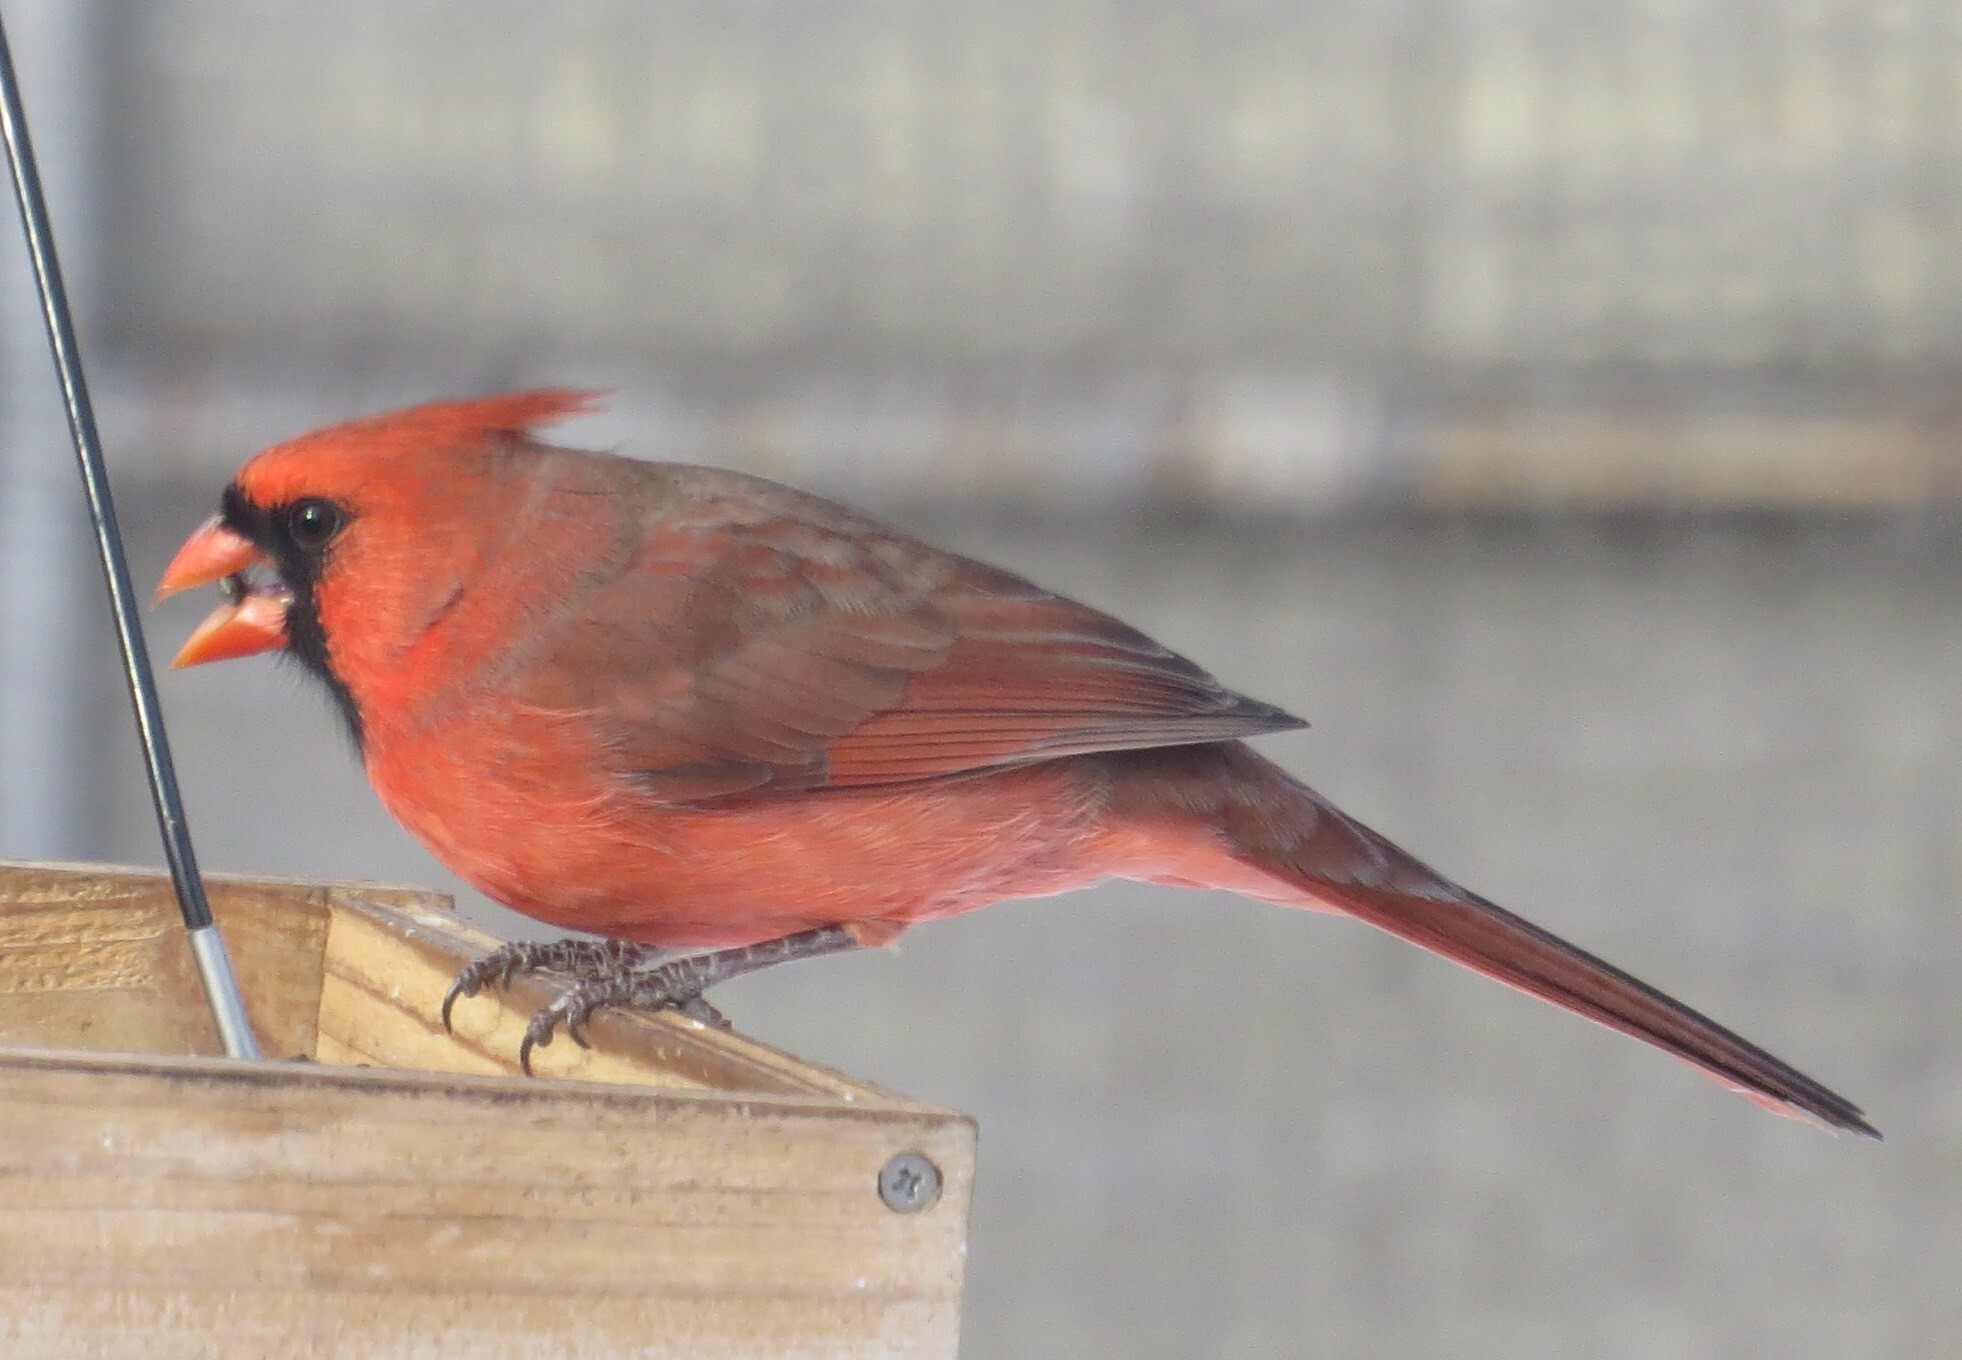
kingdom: Animalia
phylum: Chordata
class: Aves
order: Passeriformes
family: Cardinalidae
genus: Cardinalis
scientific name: Cardinalis cardinalis
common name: Northern cardinal
